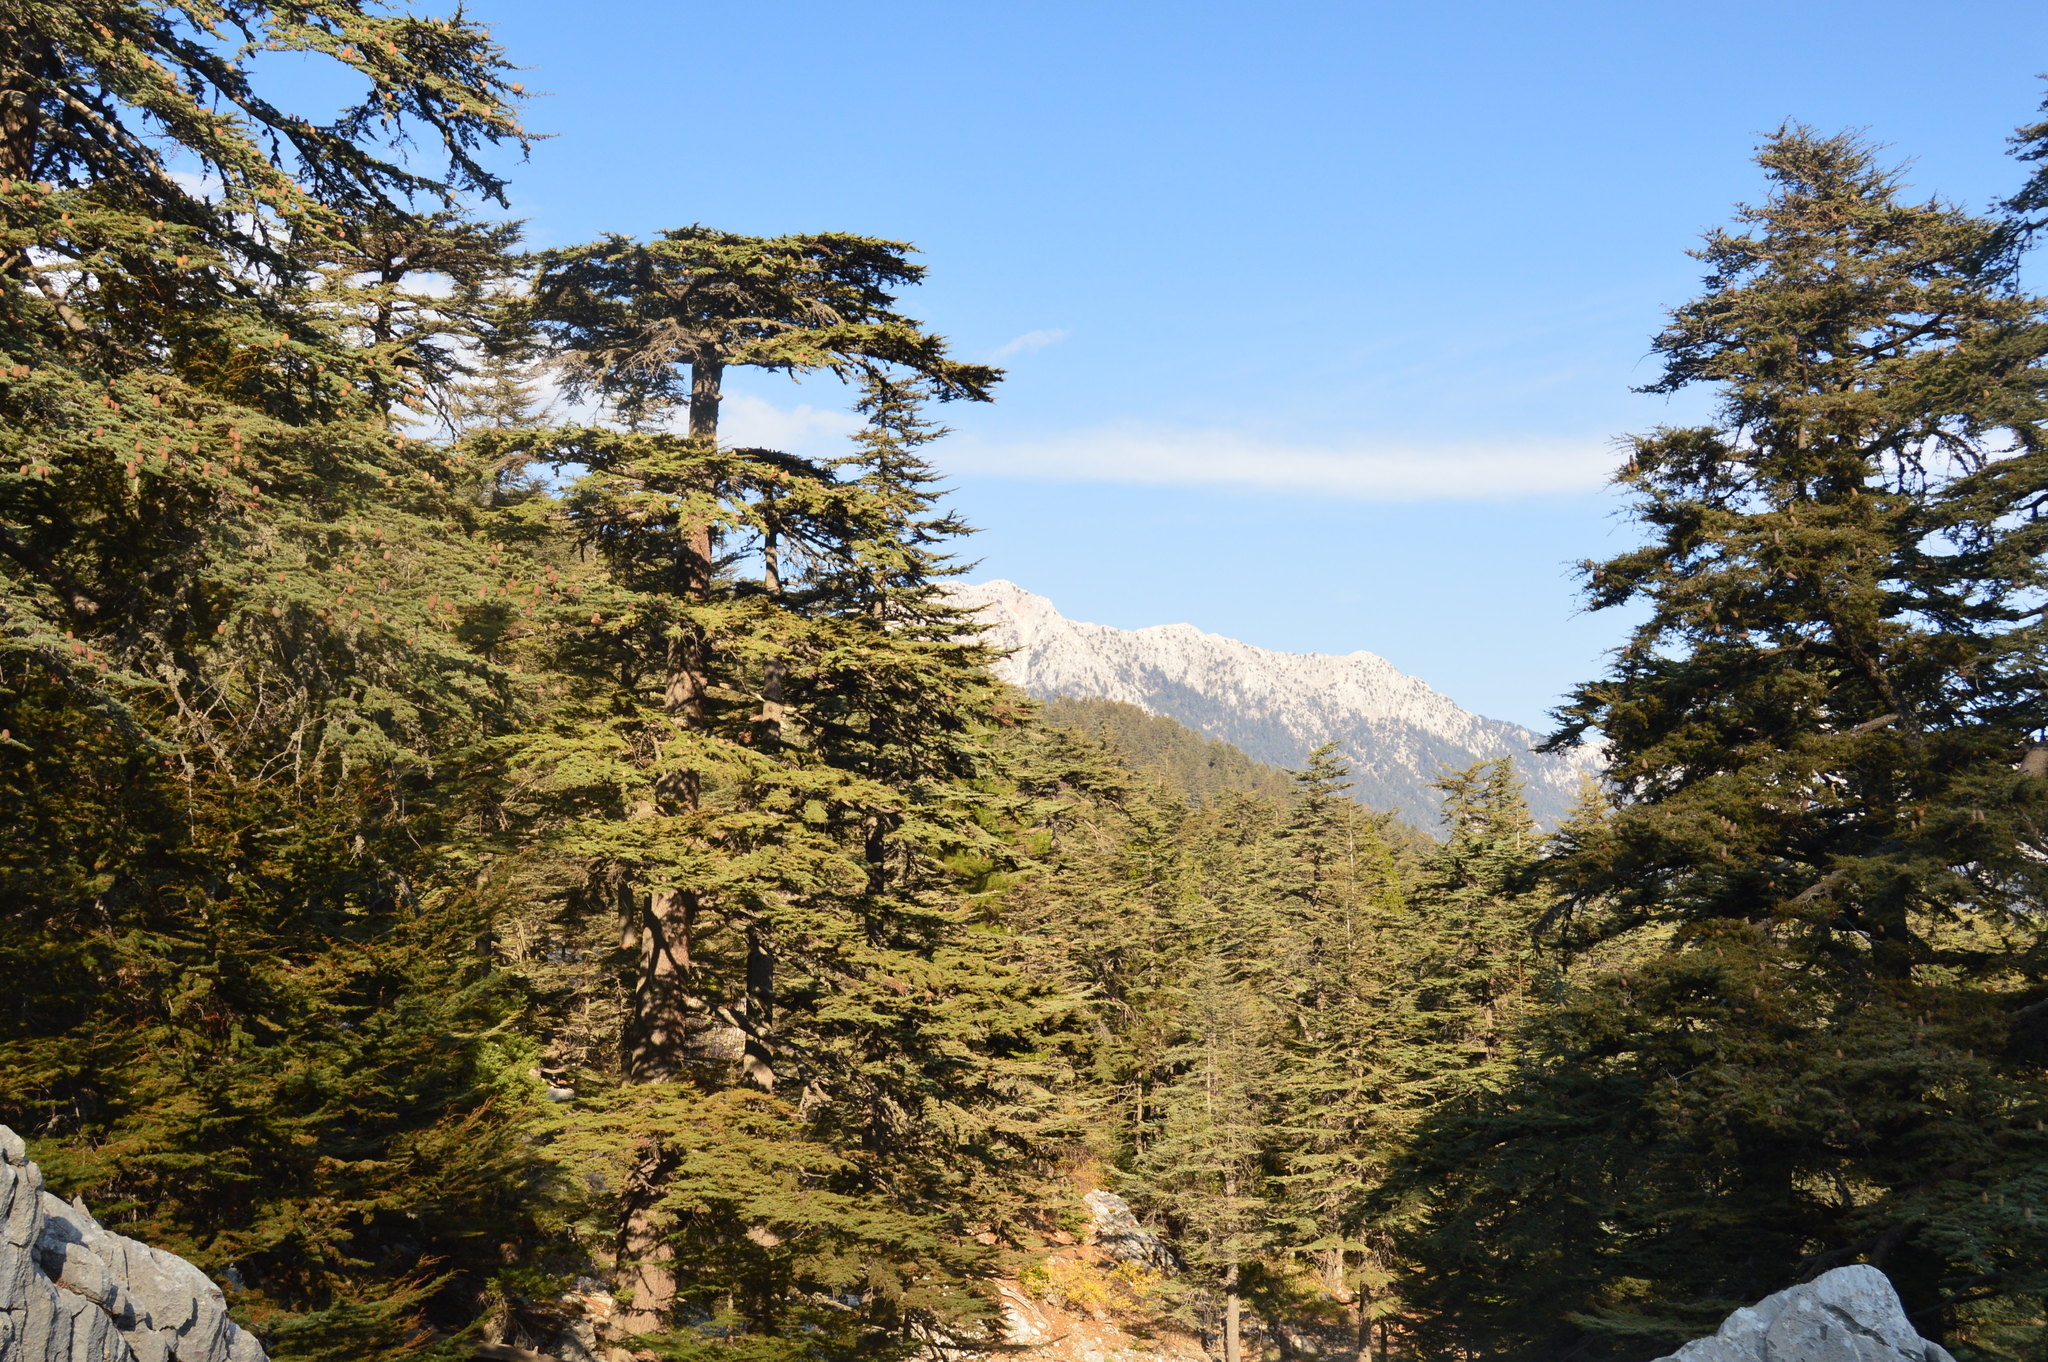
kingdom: Plantae
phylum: Tracheophyta
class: Pinopsida
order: Pinales
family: Pinaceae
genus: Cedrus
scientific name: Cedrus libani
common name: Cedar-of-lebanon
